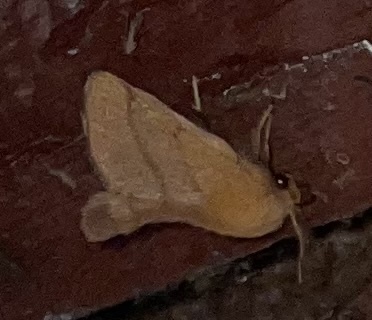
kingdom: Animalia
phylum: Arthropoda
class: Insecta
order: Lepidoptera
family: Lasiocampidae
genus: Malacosoma
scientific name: Malacosoma disstria
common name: Forest tent caterpillar
